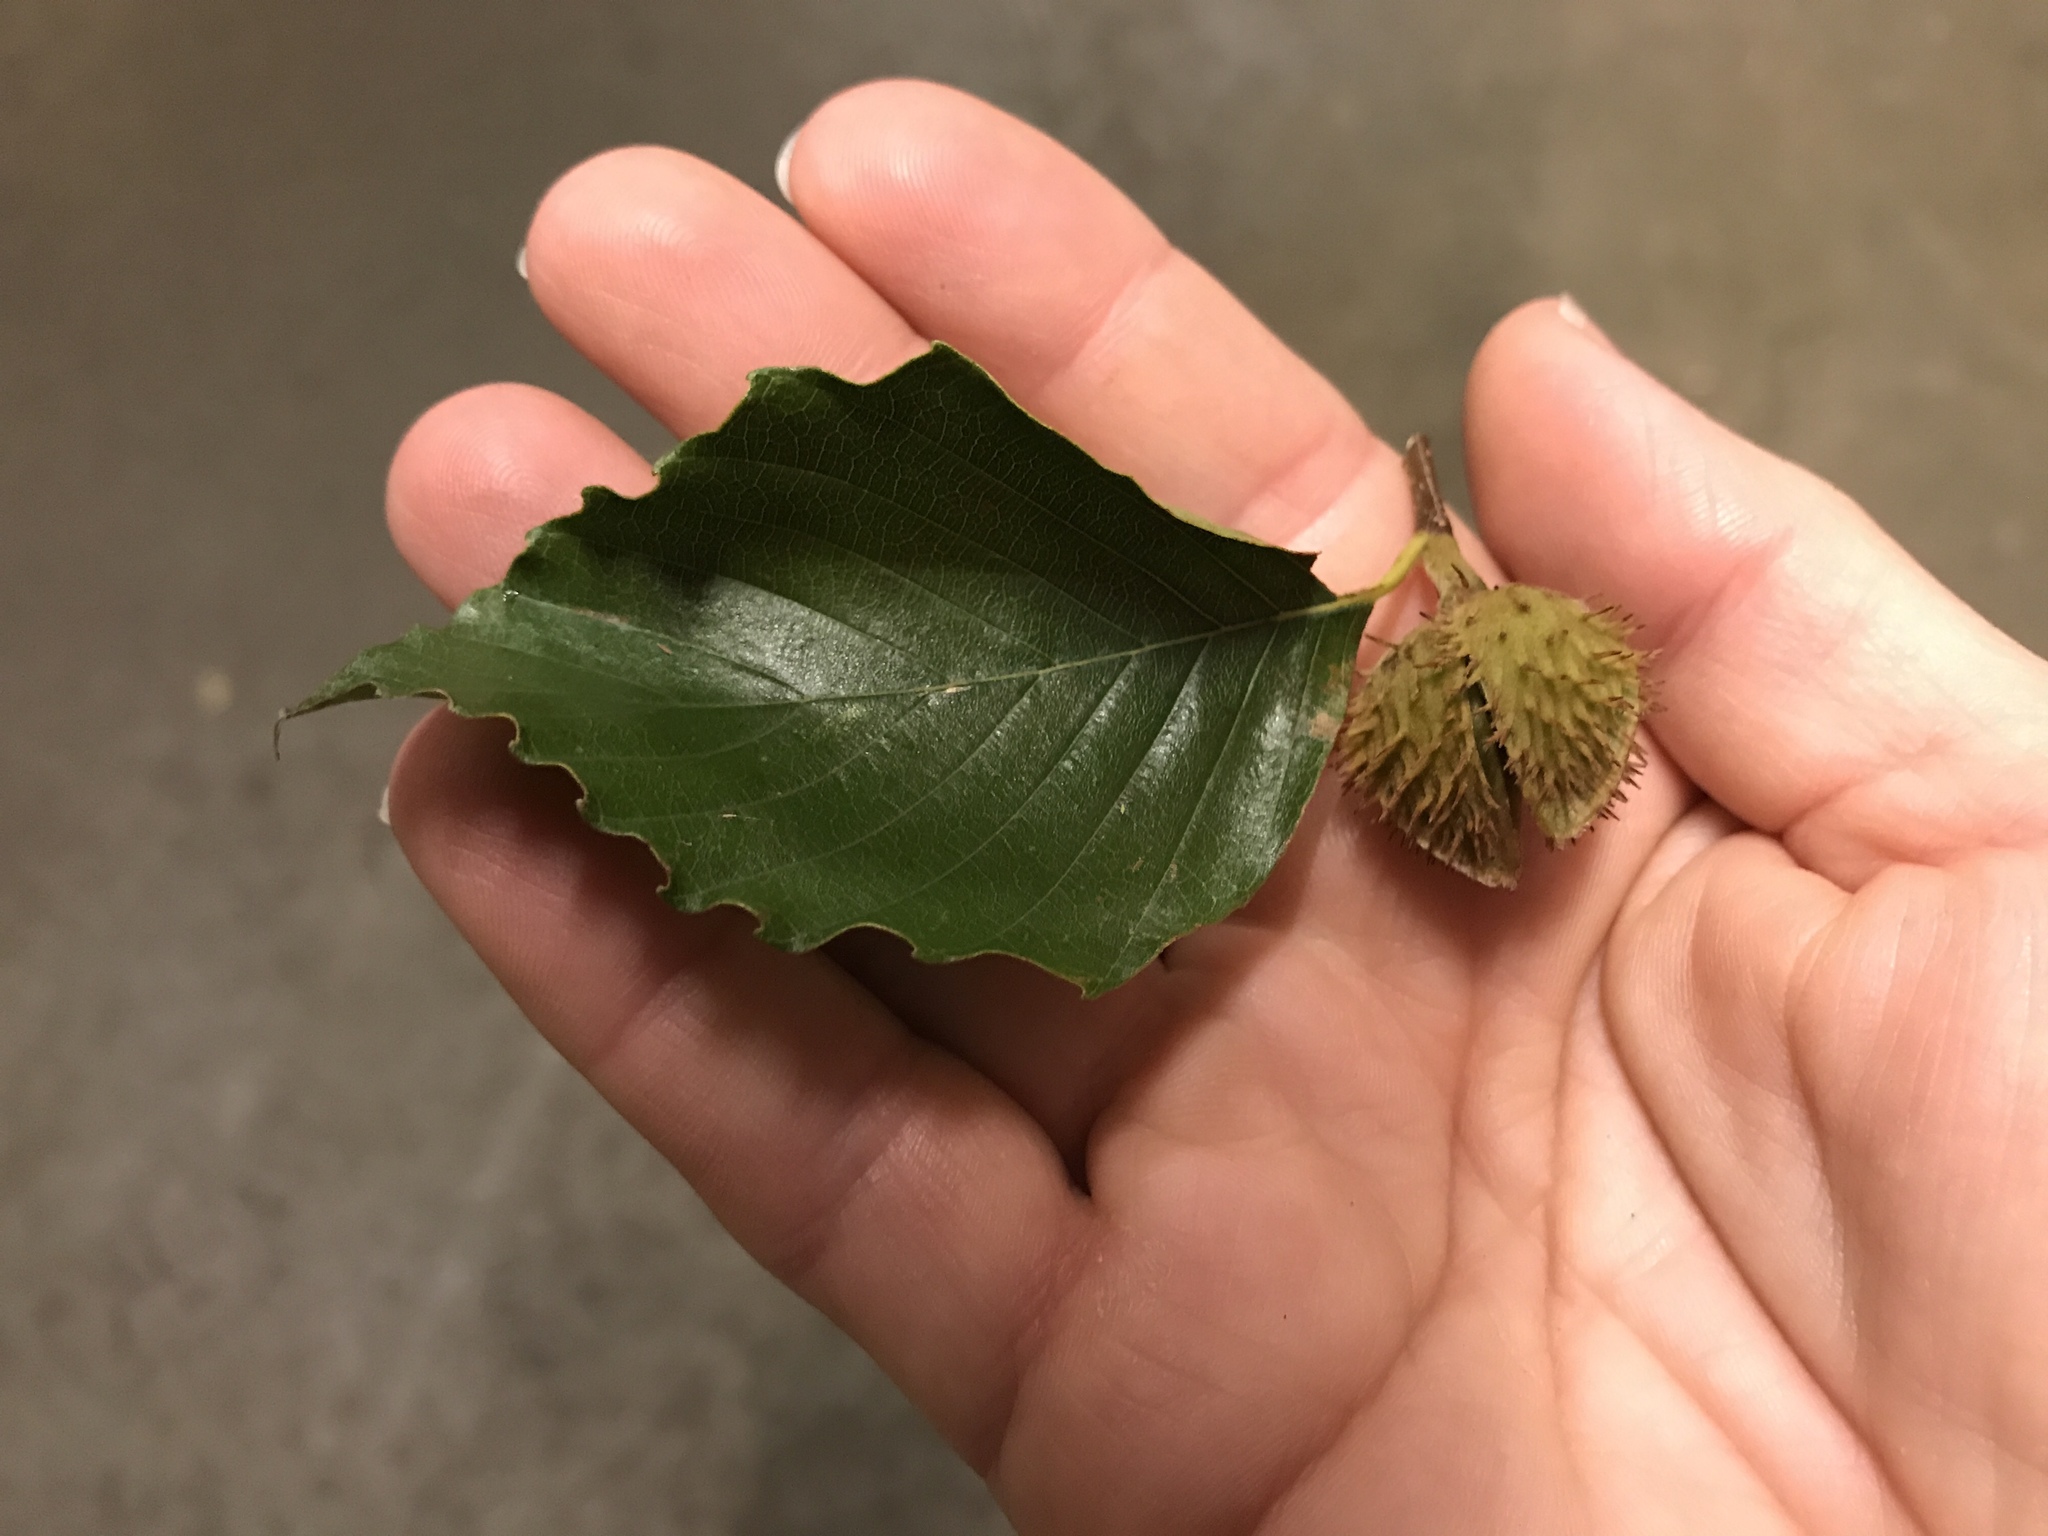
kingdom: Plantae
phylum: Tracheophyta
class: Magnoliopsida
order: Fagales
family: Fagaceae
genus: Fagus
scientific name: Fagus grandifolia
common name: American beech
